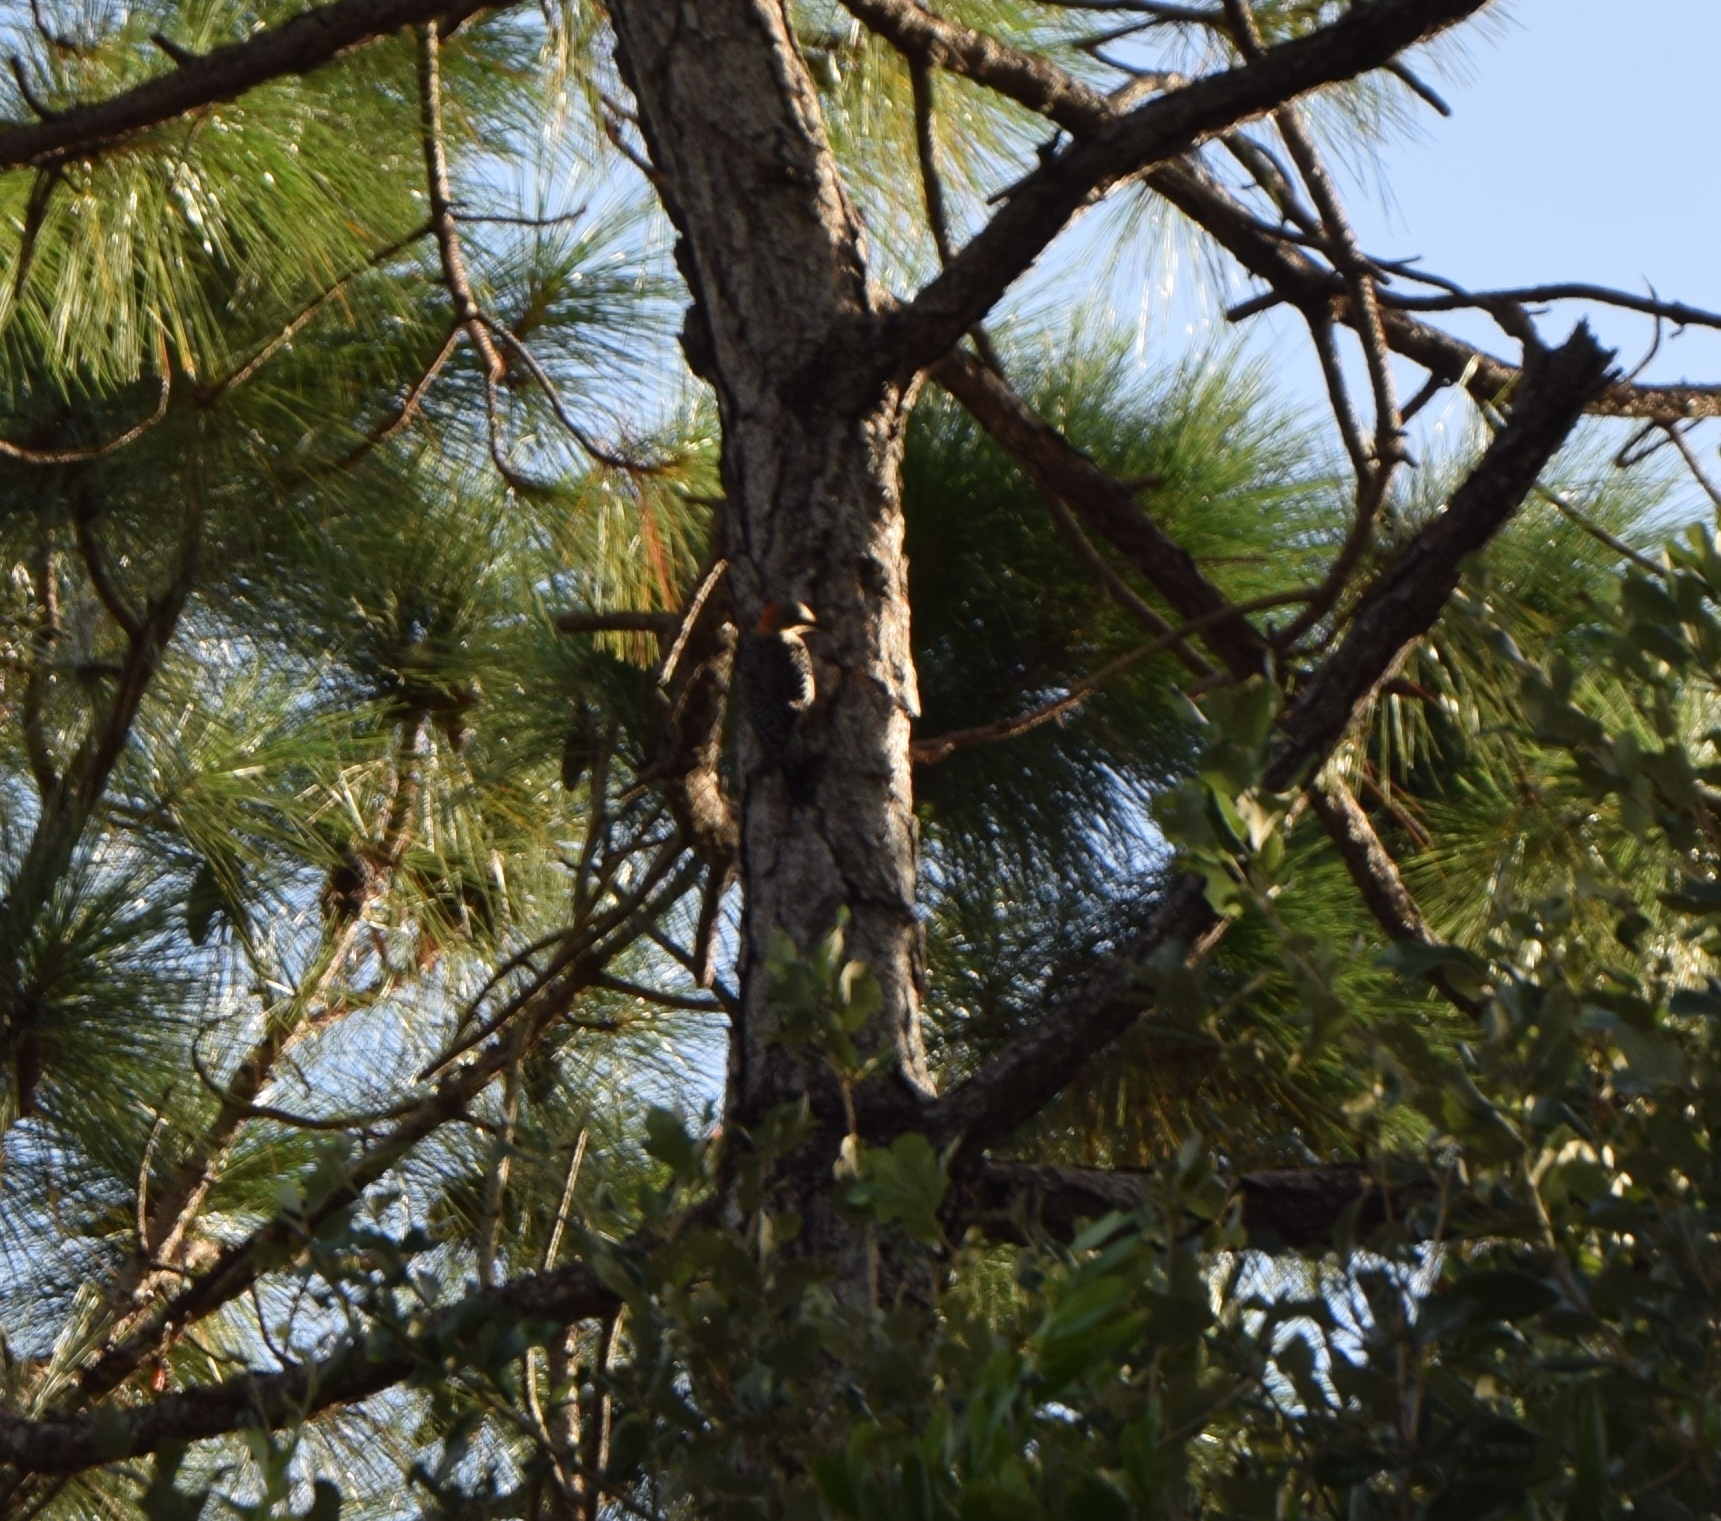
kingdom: Animalia
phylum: Chordata
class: Aves
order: Piciformes
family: Picidae
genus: Melanerpes
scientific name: Melanerpes carolinus
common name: Red-bellied woodpecker
